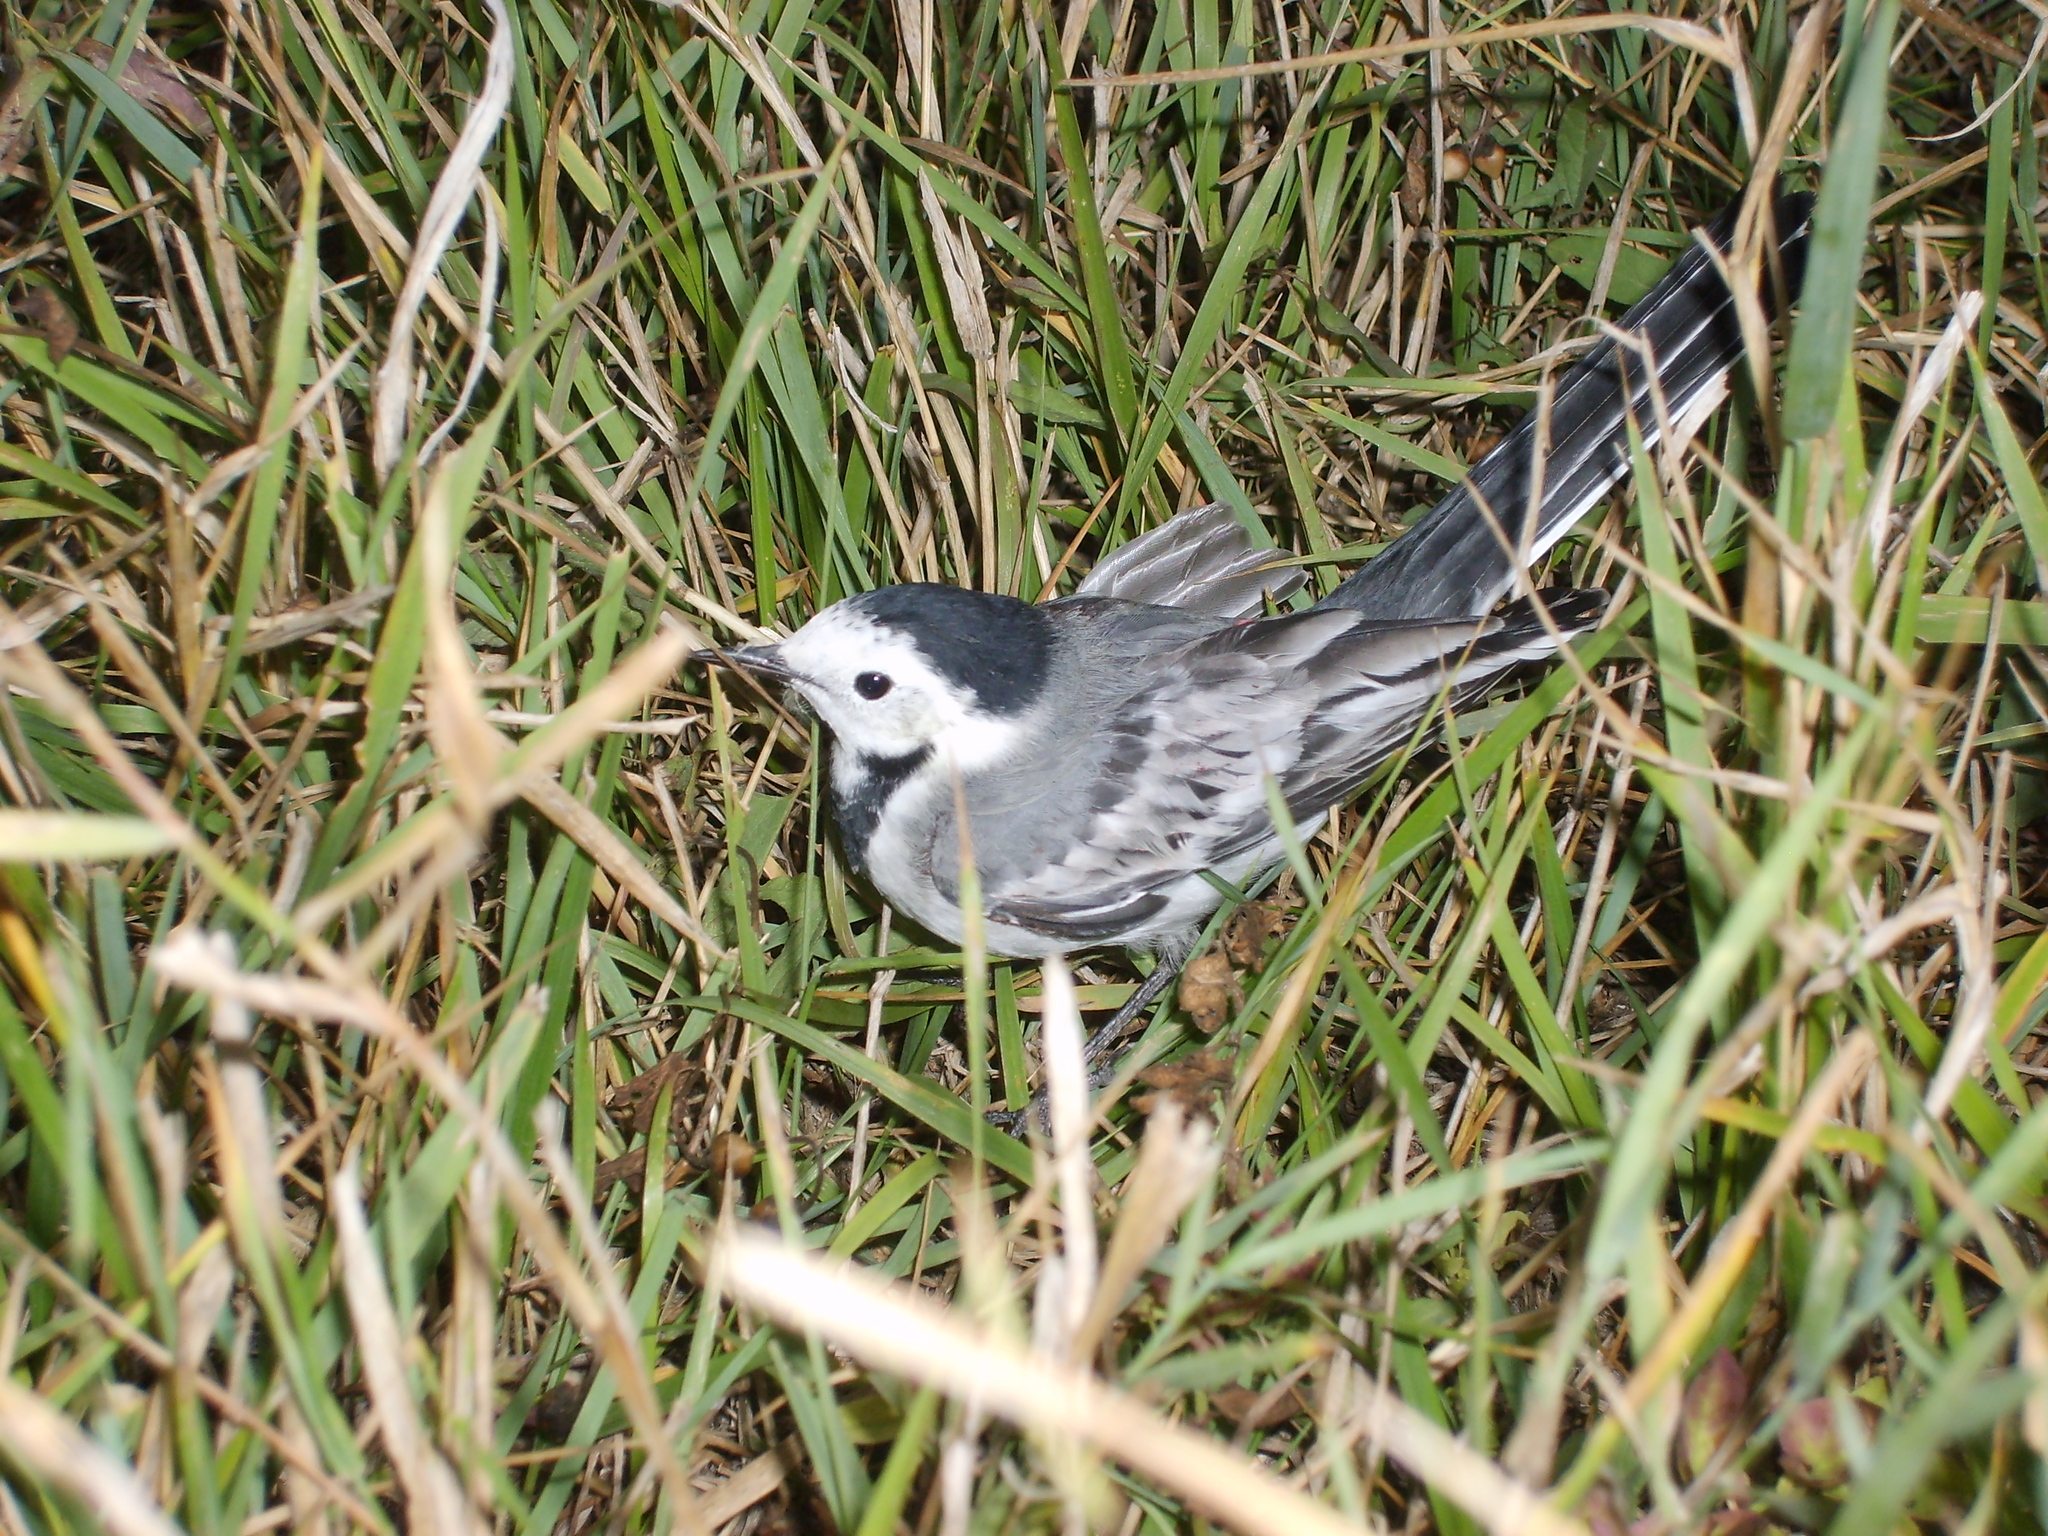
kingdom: Animalia
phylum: Chordata
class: Aves
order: Passeriformes
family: Motacillidae
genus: Motacilla
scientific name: Motacilla alba
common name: White wagtail
